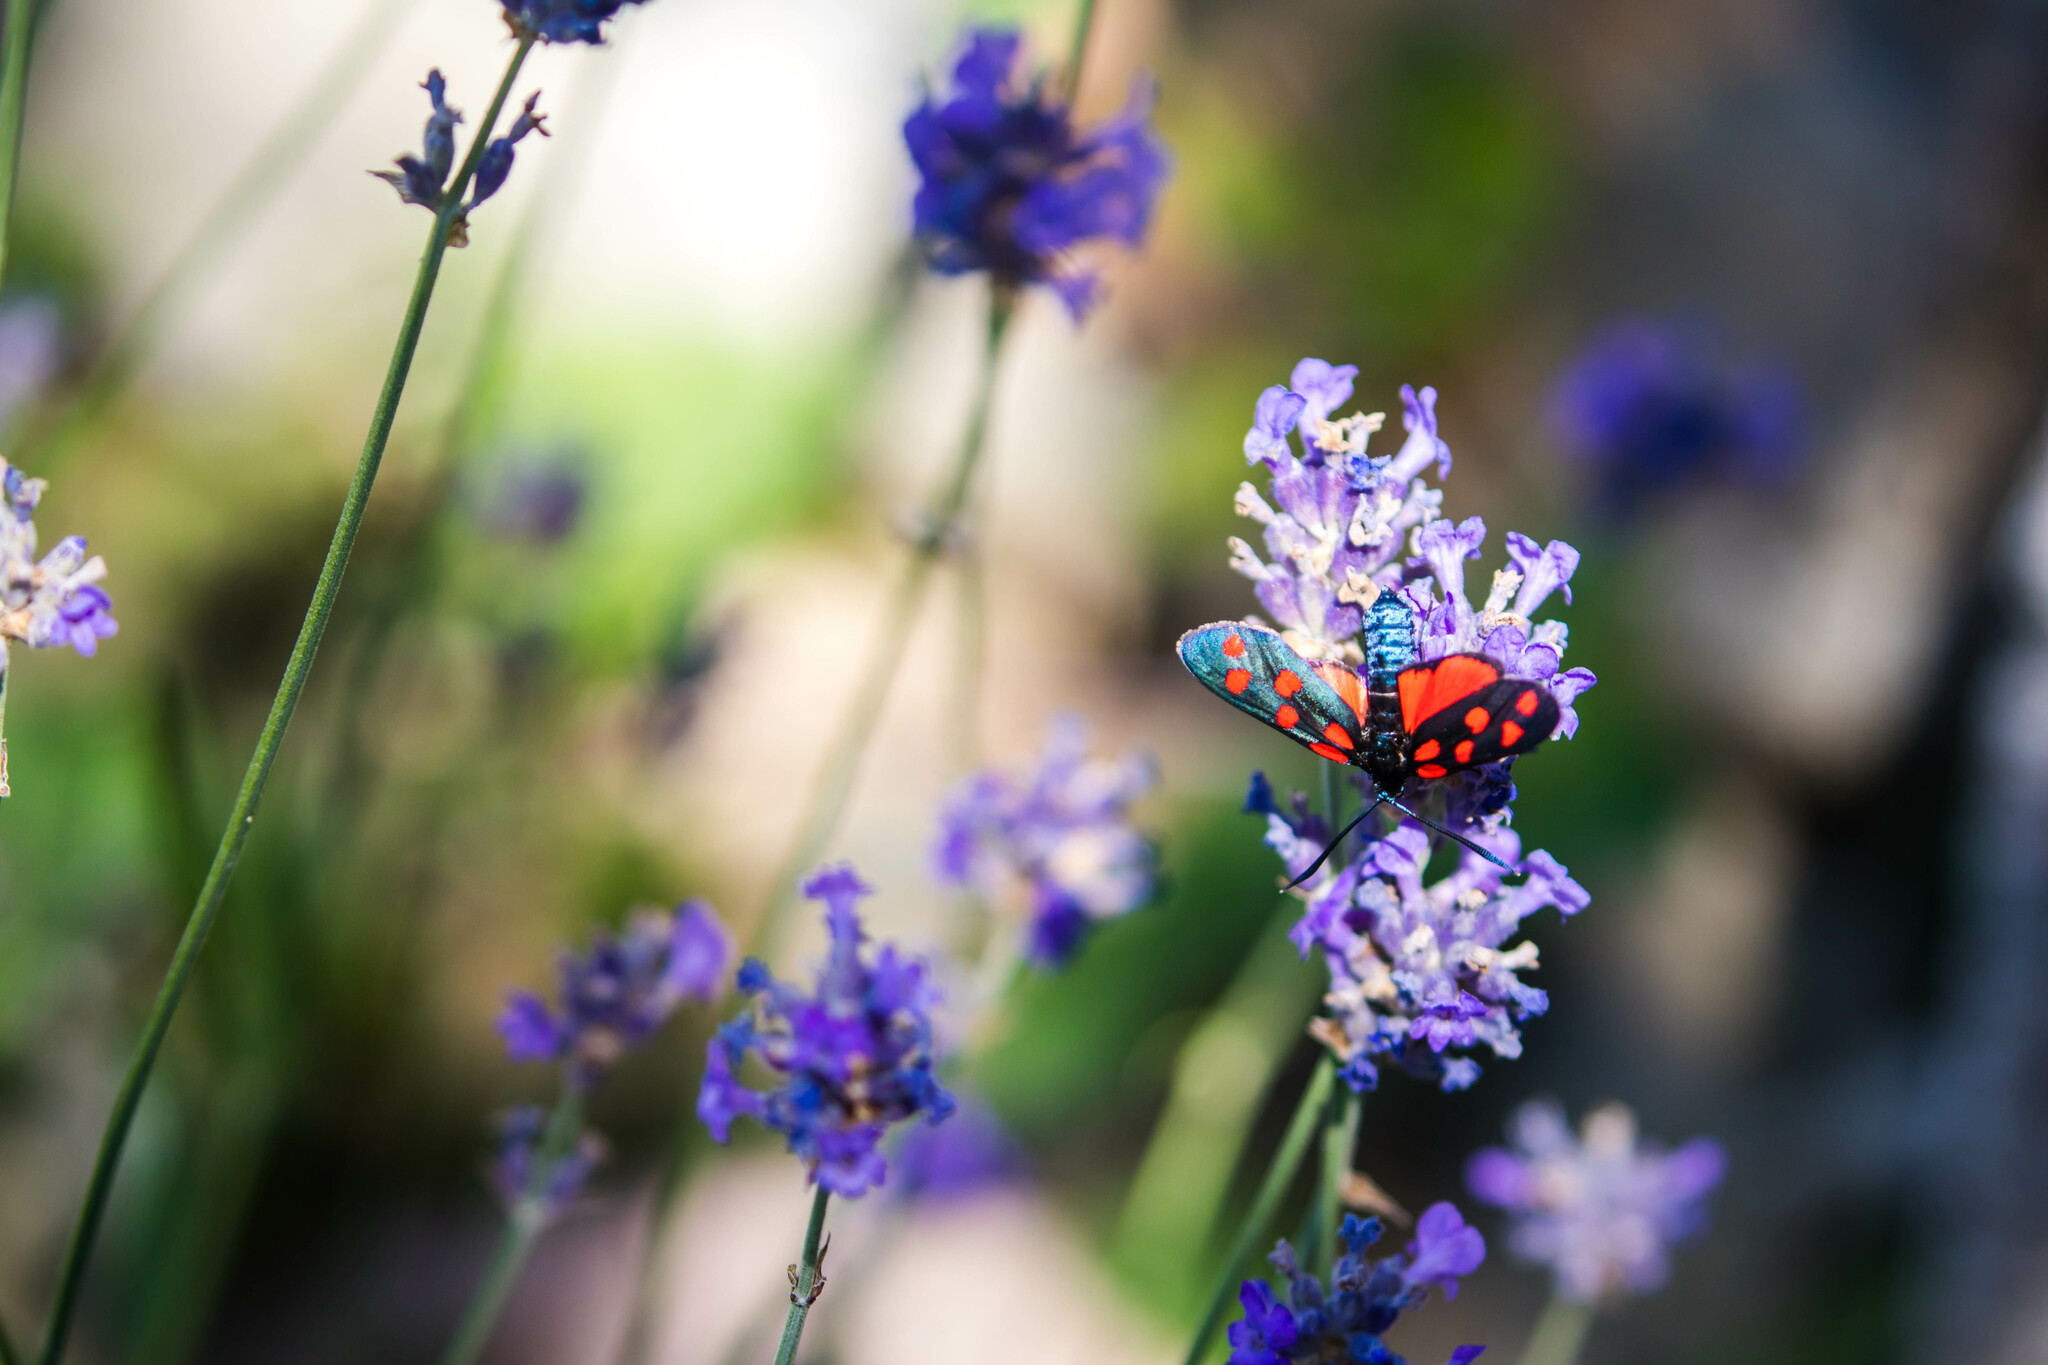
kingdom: Animalia
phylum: Arthropoda
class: Insecta
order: Lepidoptera
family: Zygaenidae
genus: Zygaena
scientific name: Zygaena transalpina
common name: Southern six spot burnet
